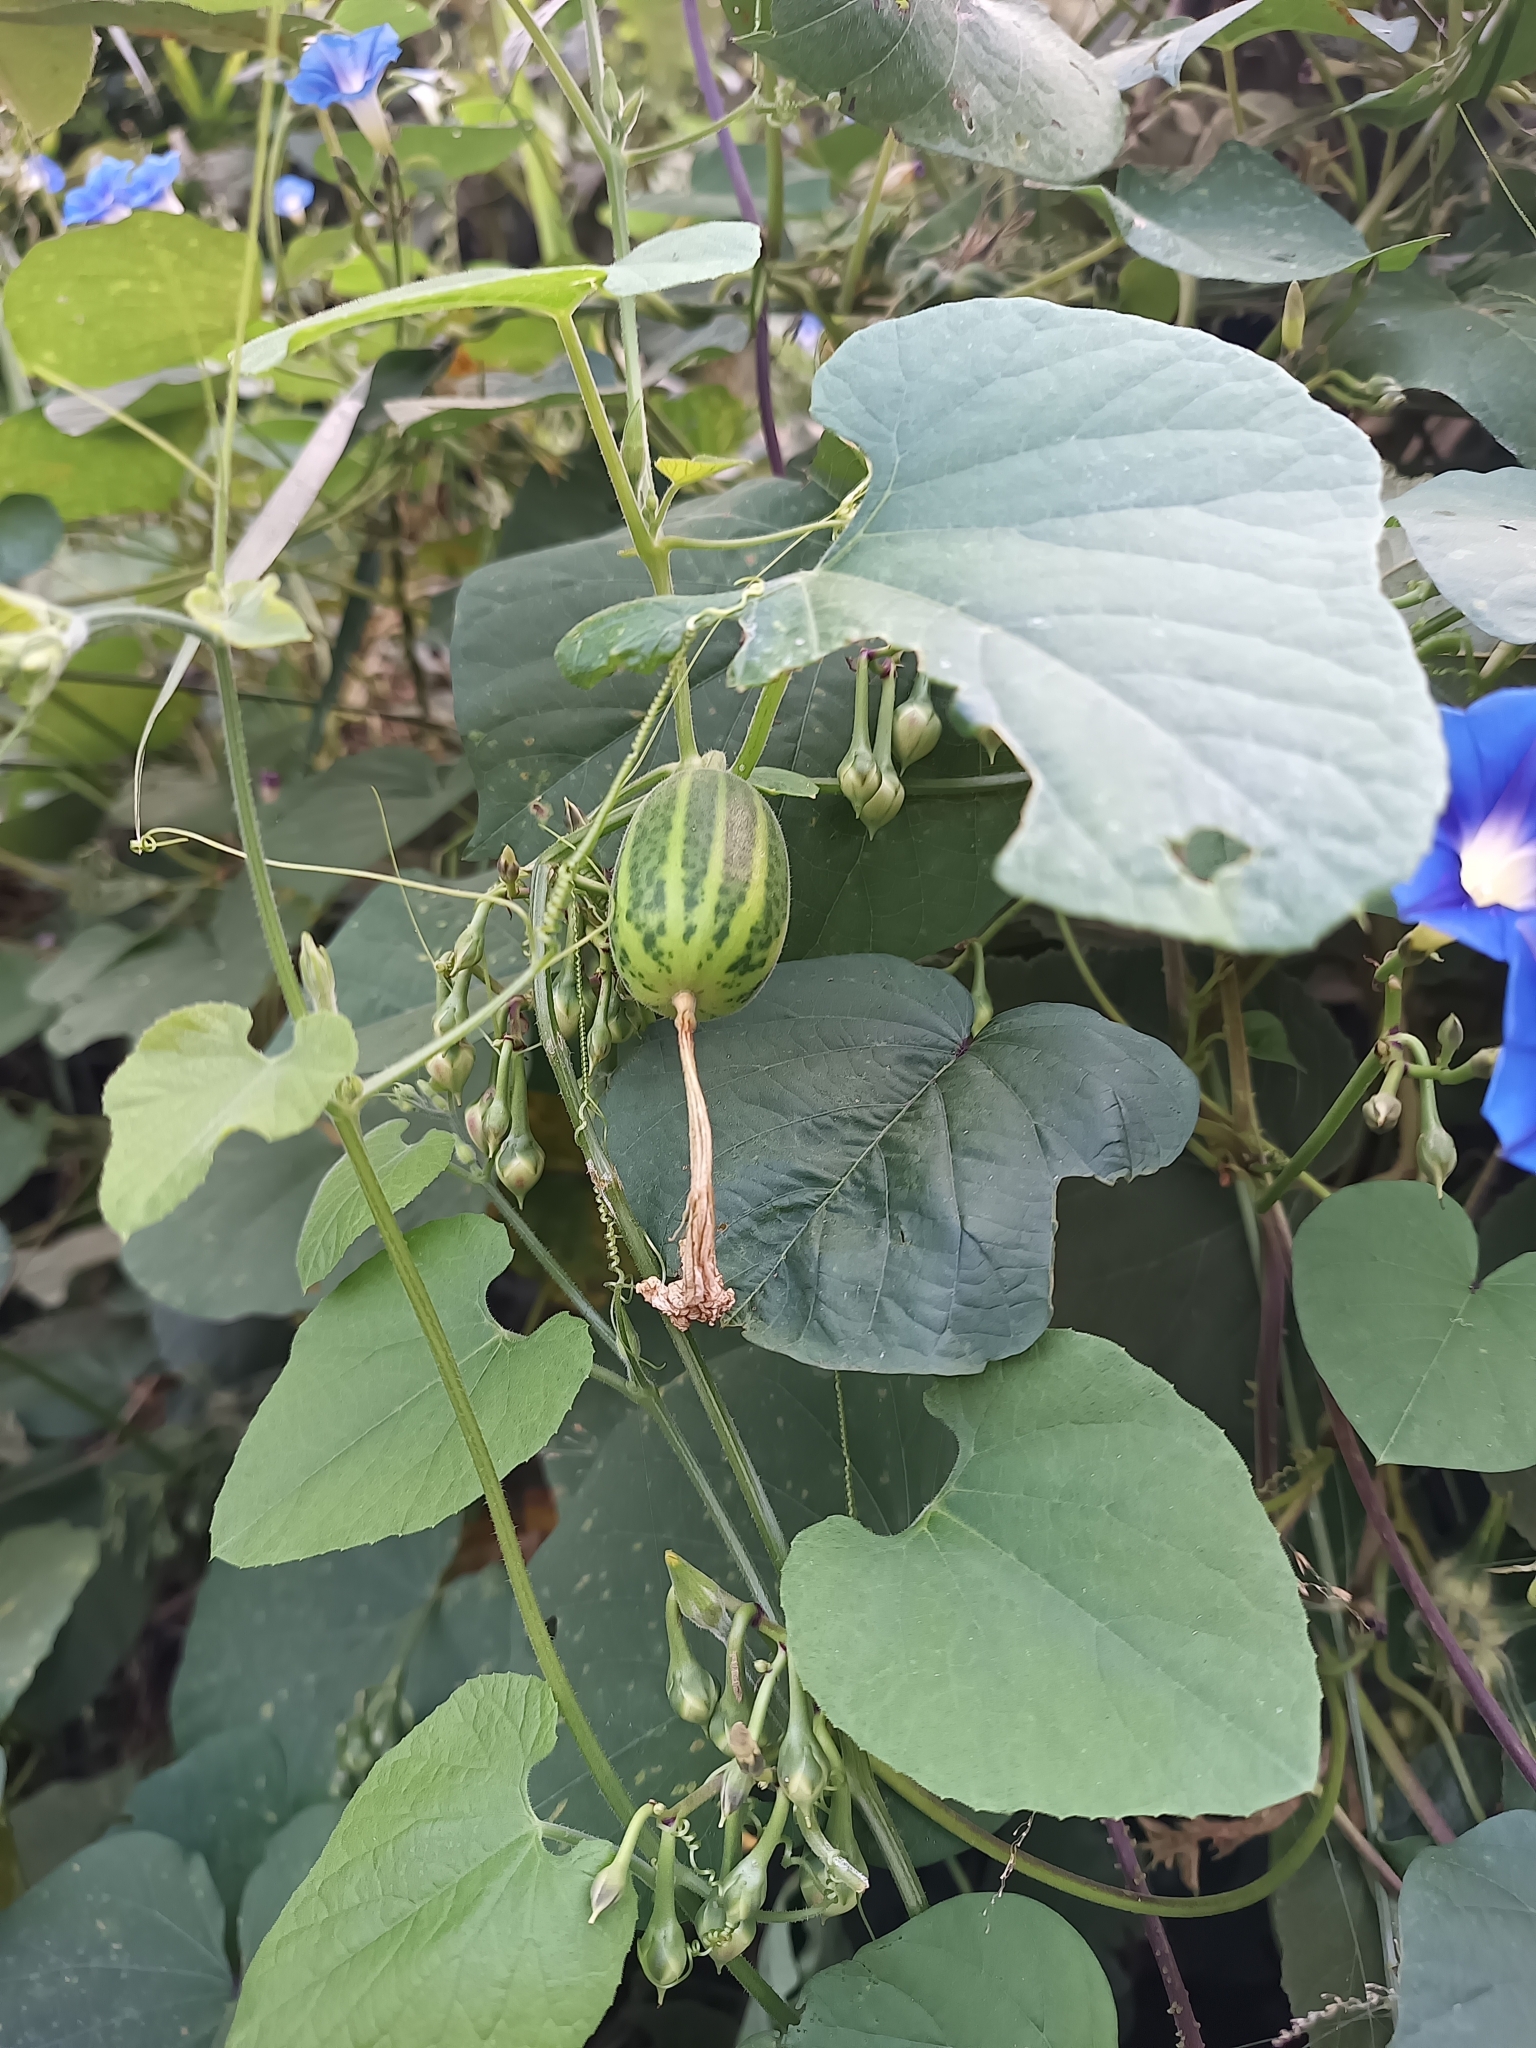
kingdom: Plantae
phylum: Tracheophyta
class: Magnoliopsida
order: Cucurbitales
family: Cucurbitaceae
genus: Polyclathra
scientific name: Polyclathra cucumerina
